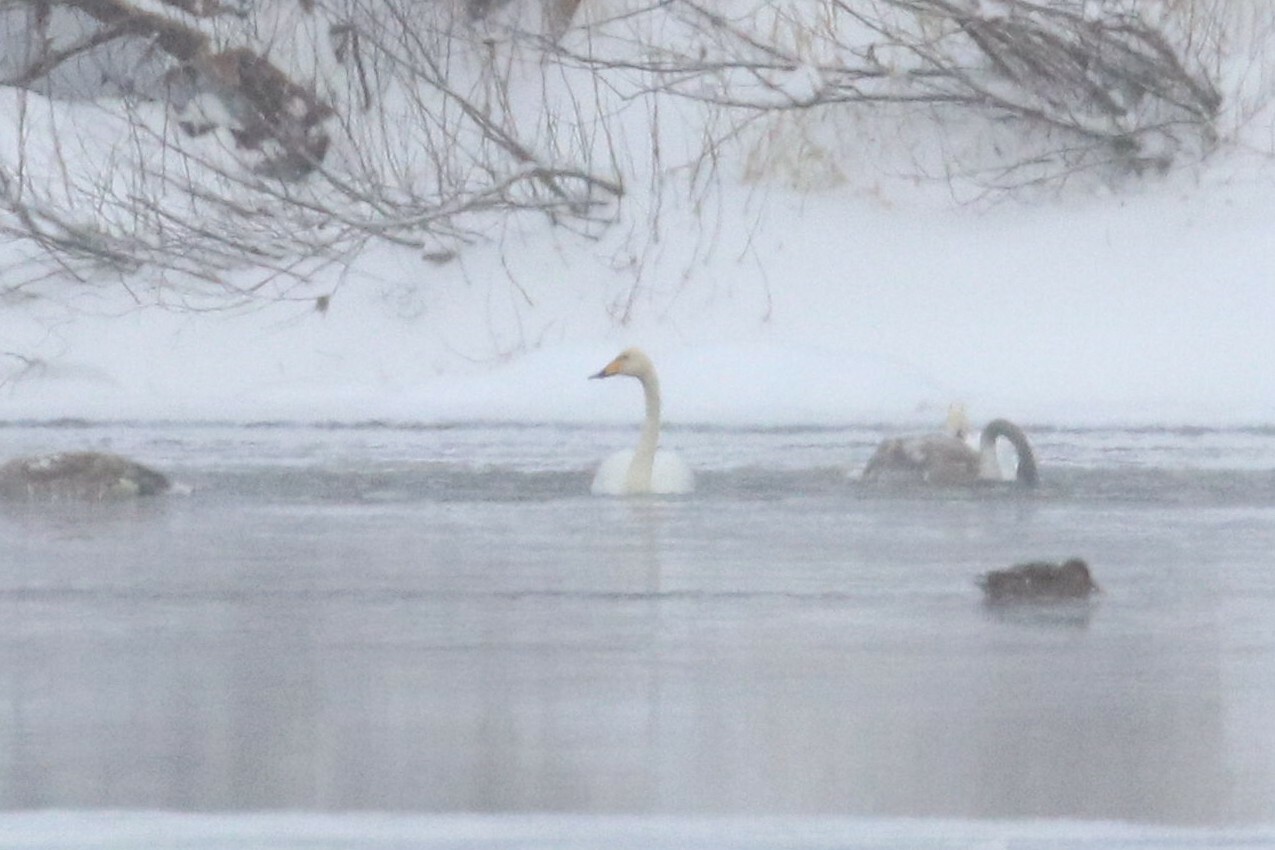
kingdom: Animalia
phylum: Chordata
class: Aves
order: Anseriformes
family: Anatidae
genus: Cygnus
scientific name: Cygnus cygnus
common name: Whooper swan
